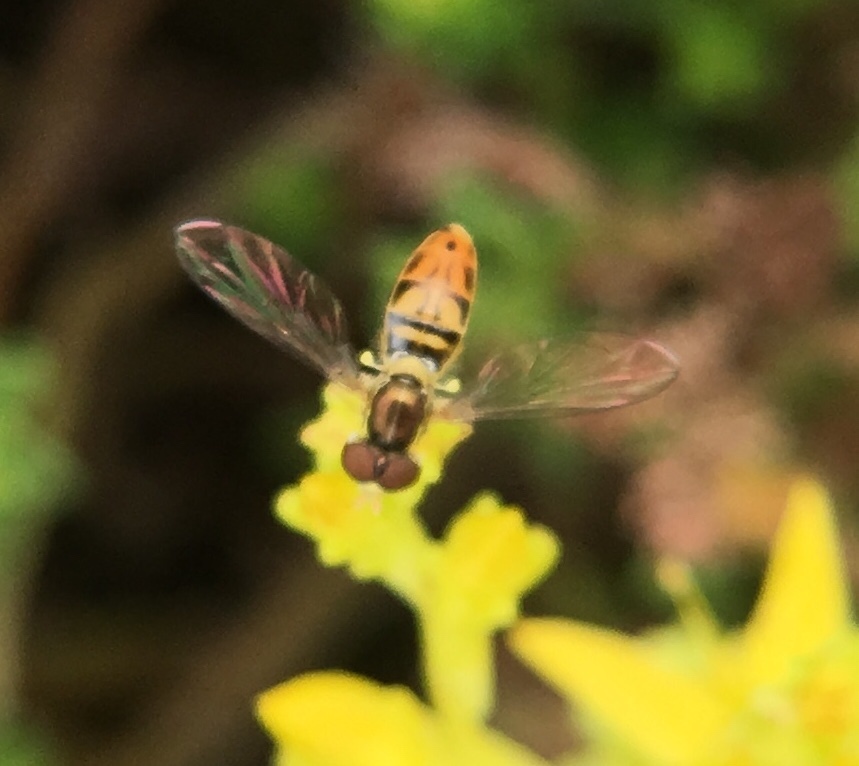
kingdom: Animalia
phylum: Arthropoda
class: Insecta
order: Diptera
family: Syrphidae
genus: Toxomerus
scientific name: Toxomerus marginatus
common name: Syrphid fly
